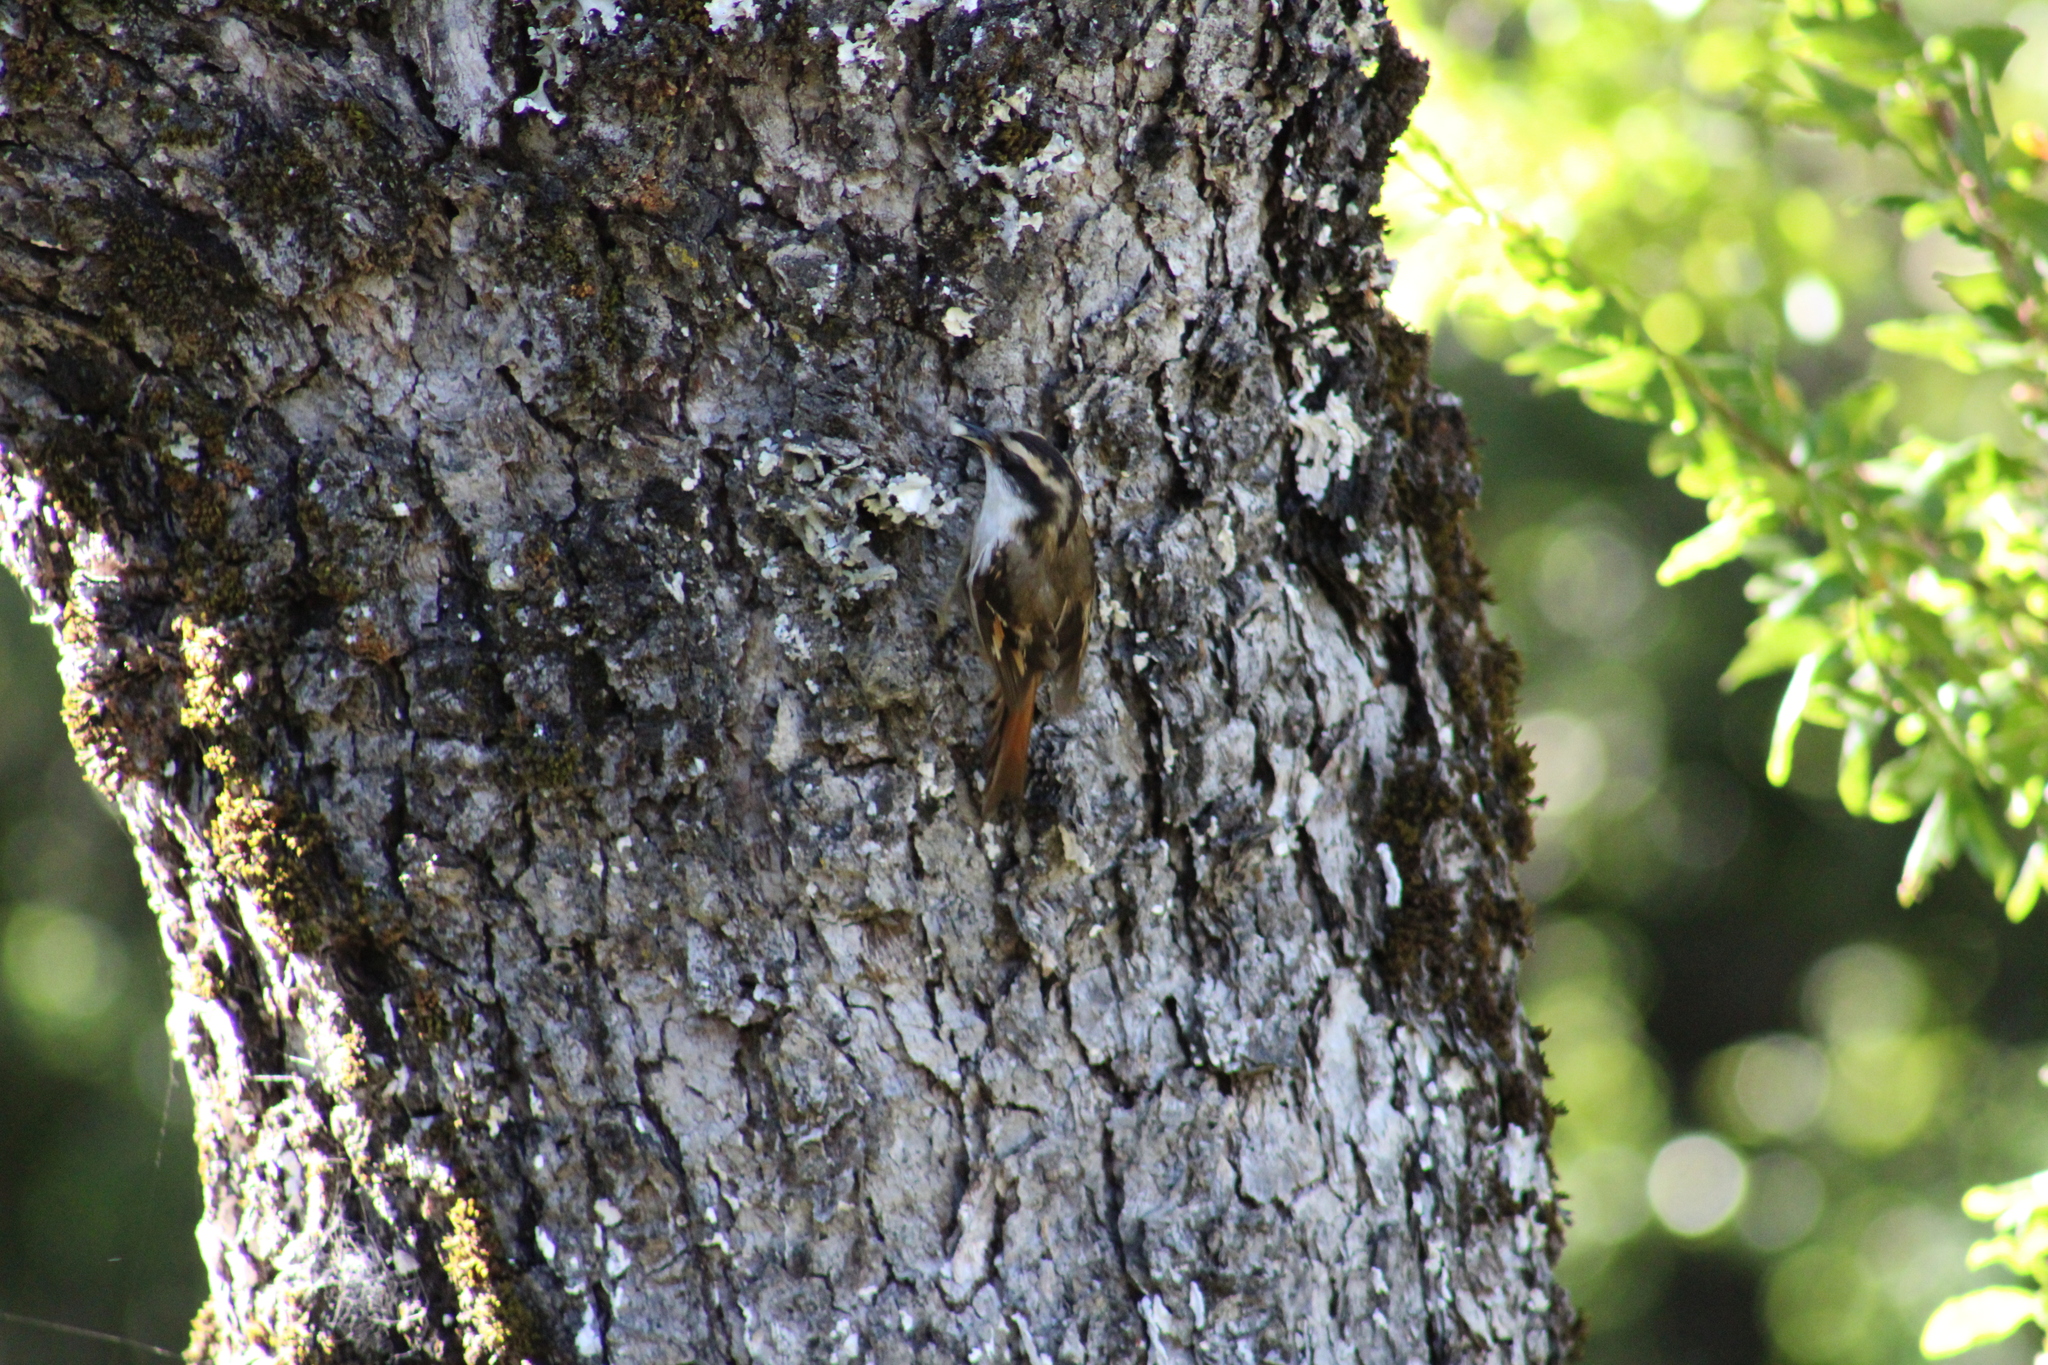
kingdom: Animalia
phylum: Chordata
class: Aves
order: Passeriformes
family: Furnariidae
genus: Aphrastura
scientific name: Aphrastura spinicauda
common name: Thorn-tailed rayadito
